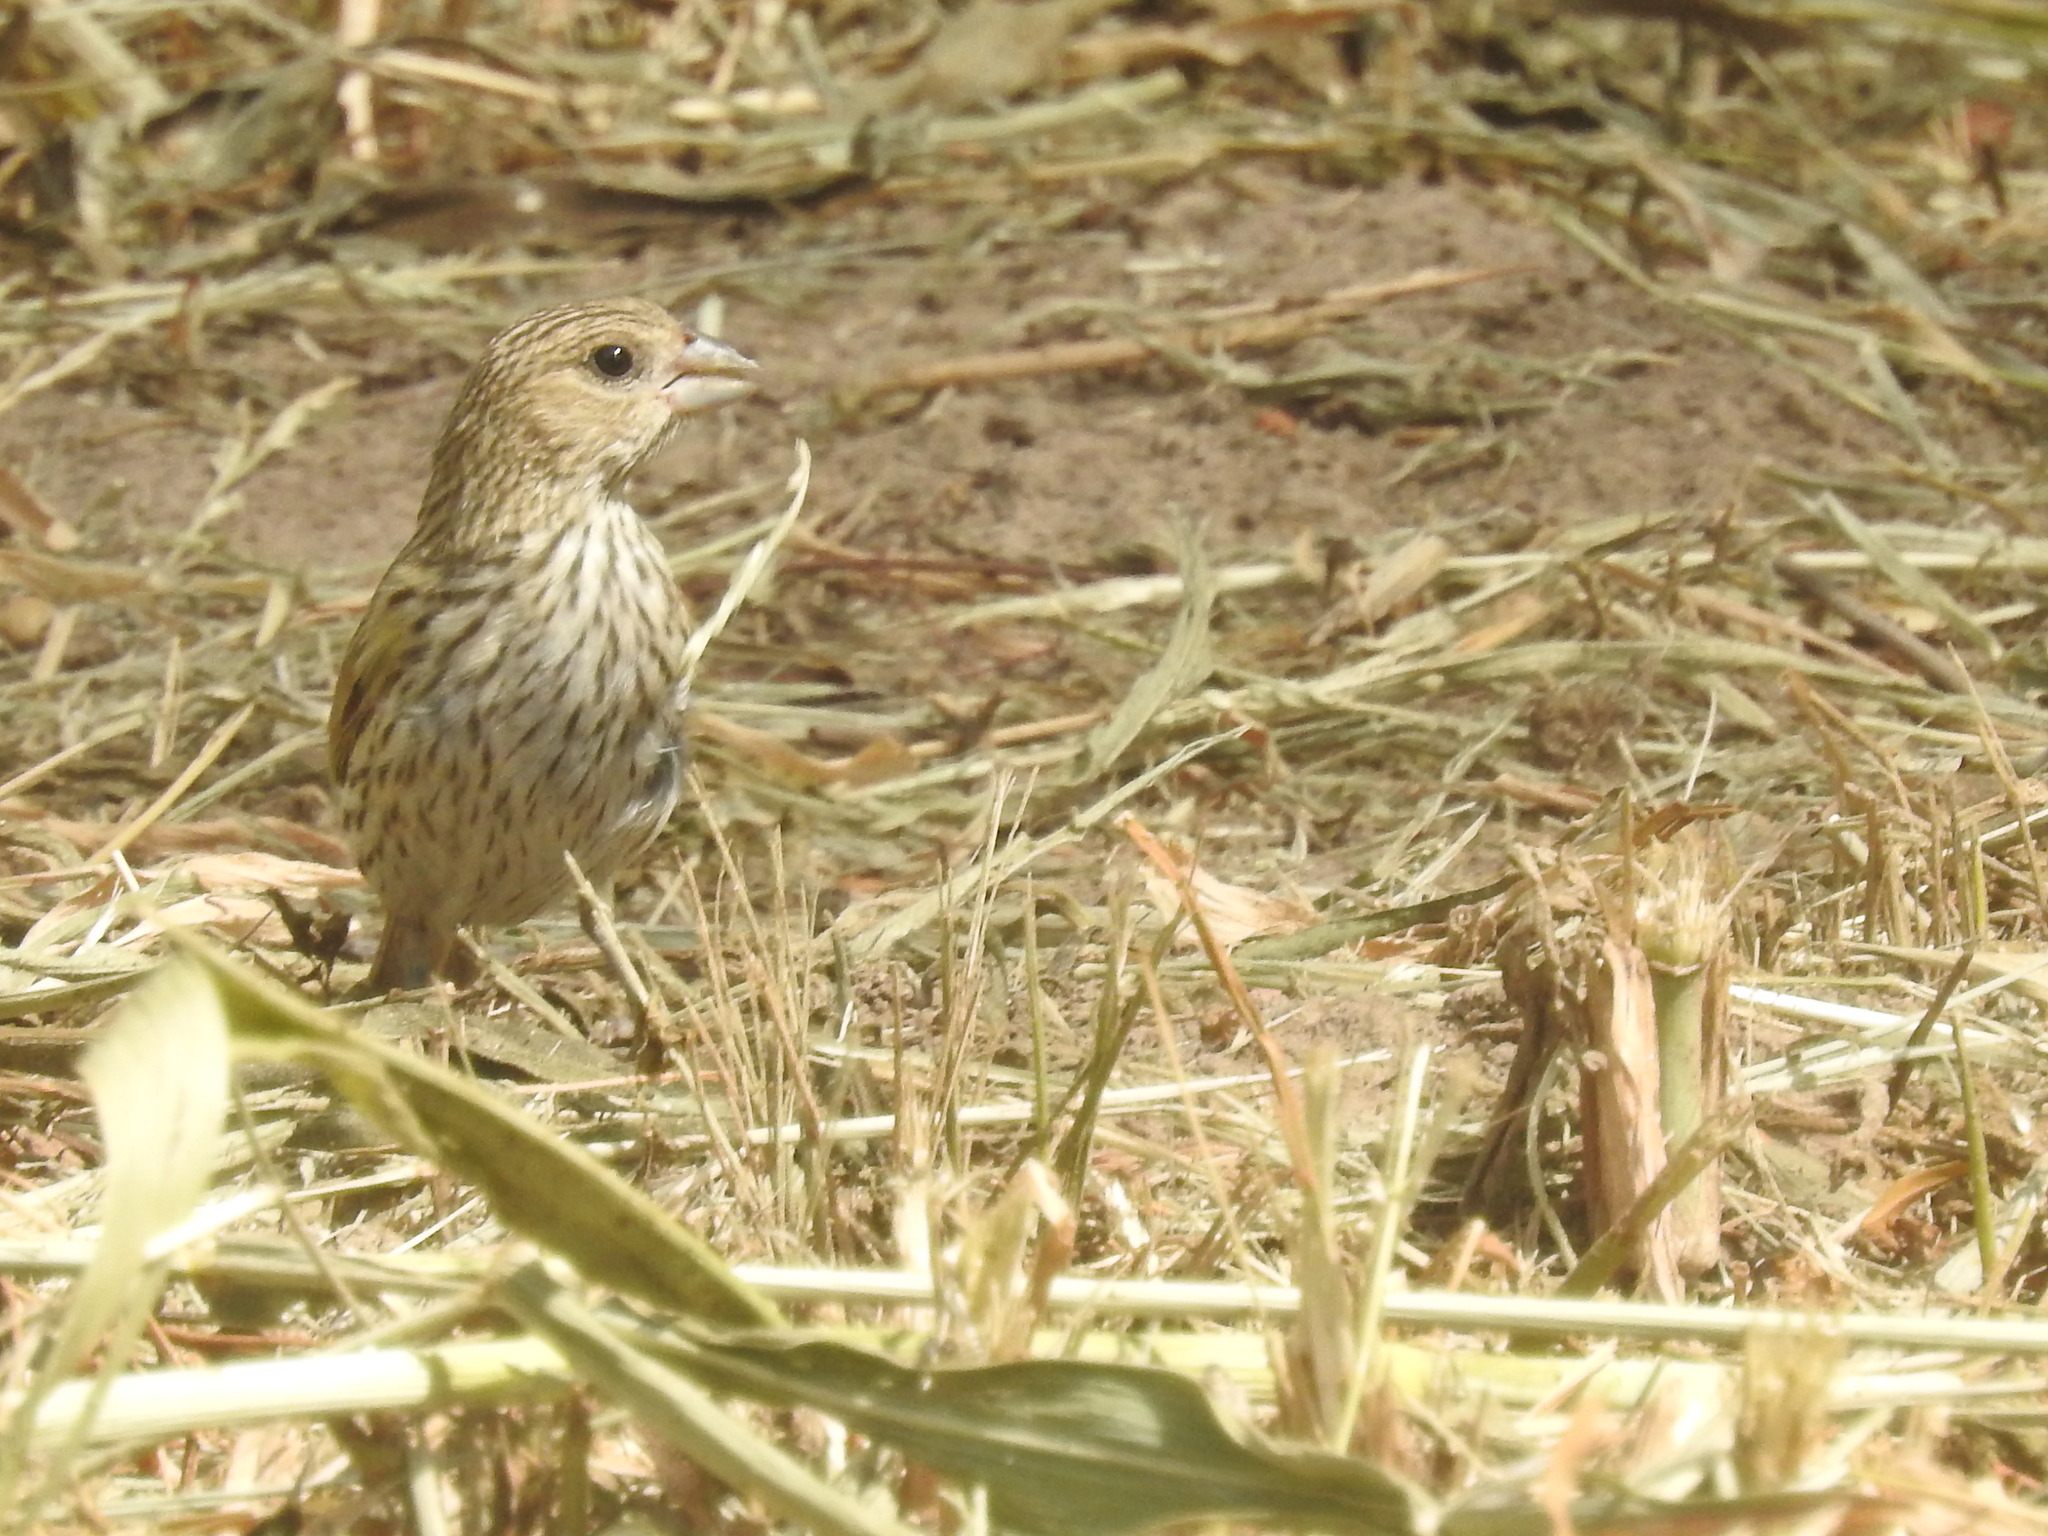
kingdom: Animalia
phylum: Chordata
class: Aves
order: Passeriformes
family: Thraupidae
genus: Sicalis
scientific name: Sicalis flaveola
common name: Saffron finch
